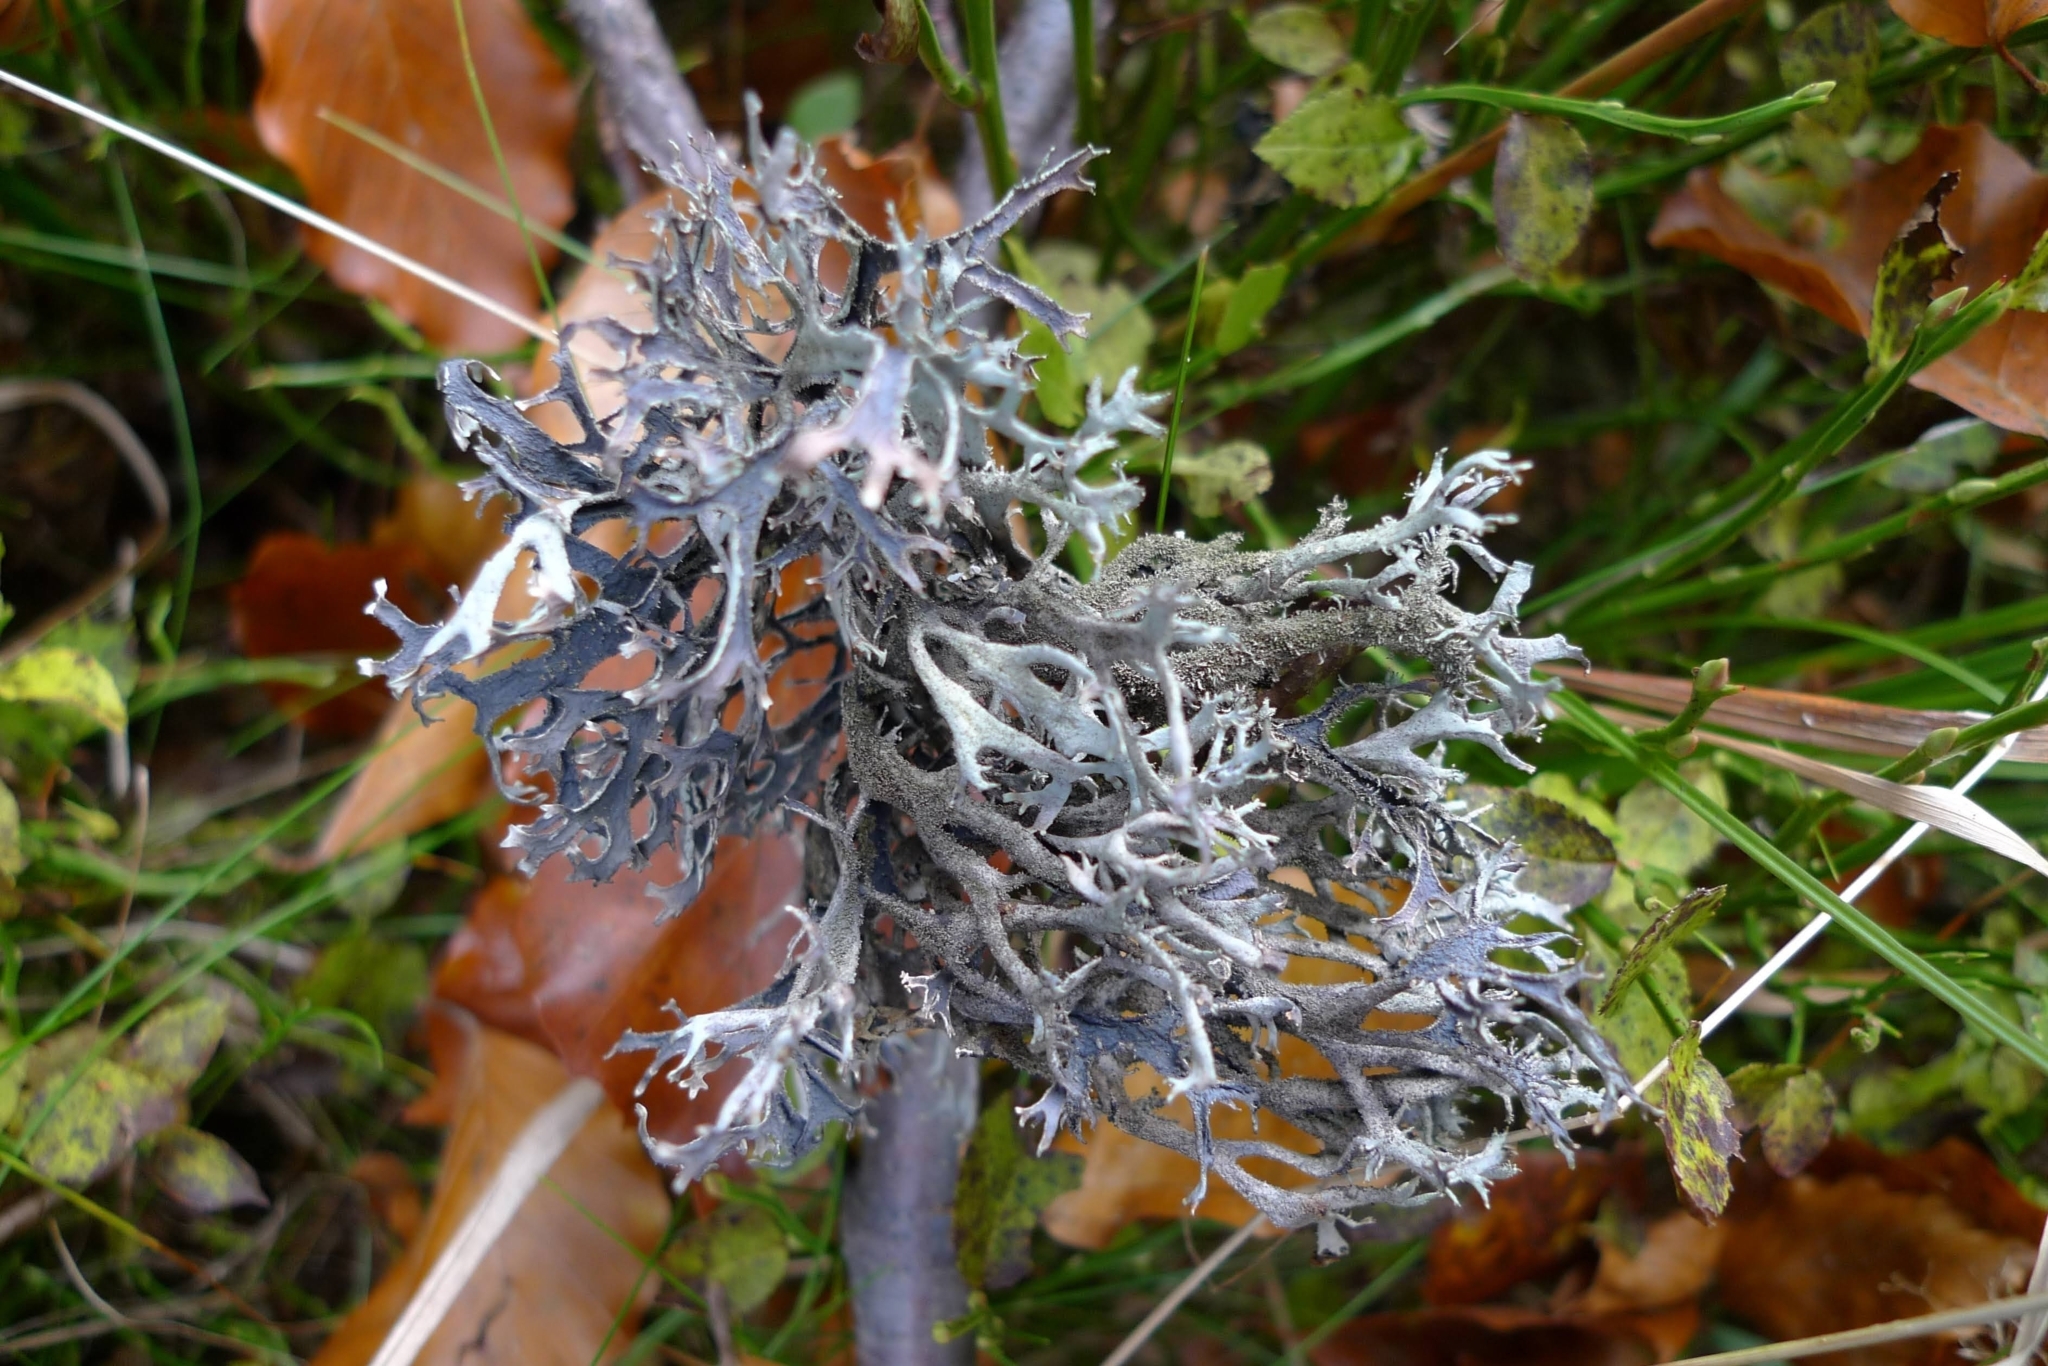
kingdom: Fungi
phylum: Ascomycota
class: Lecanoromycetes
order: Lecanorales
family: Parmeliaceae
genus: Pseudevernia
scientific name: Pseudevernia furfuracea
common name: Tree moss
